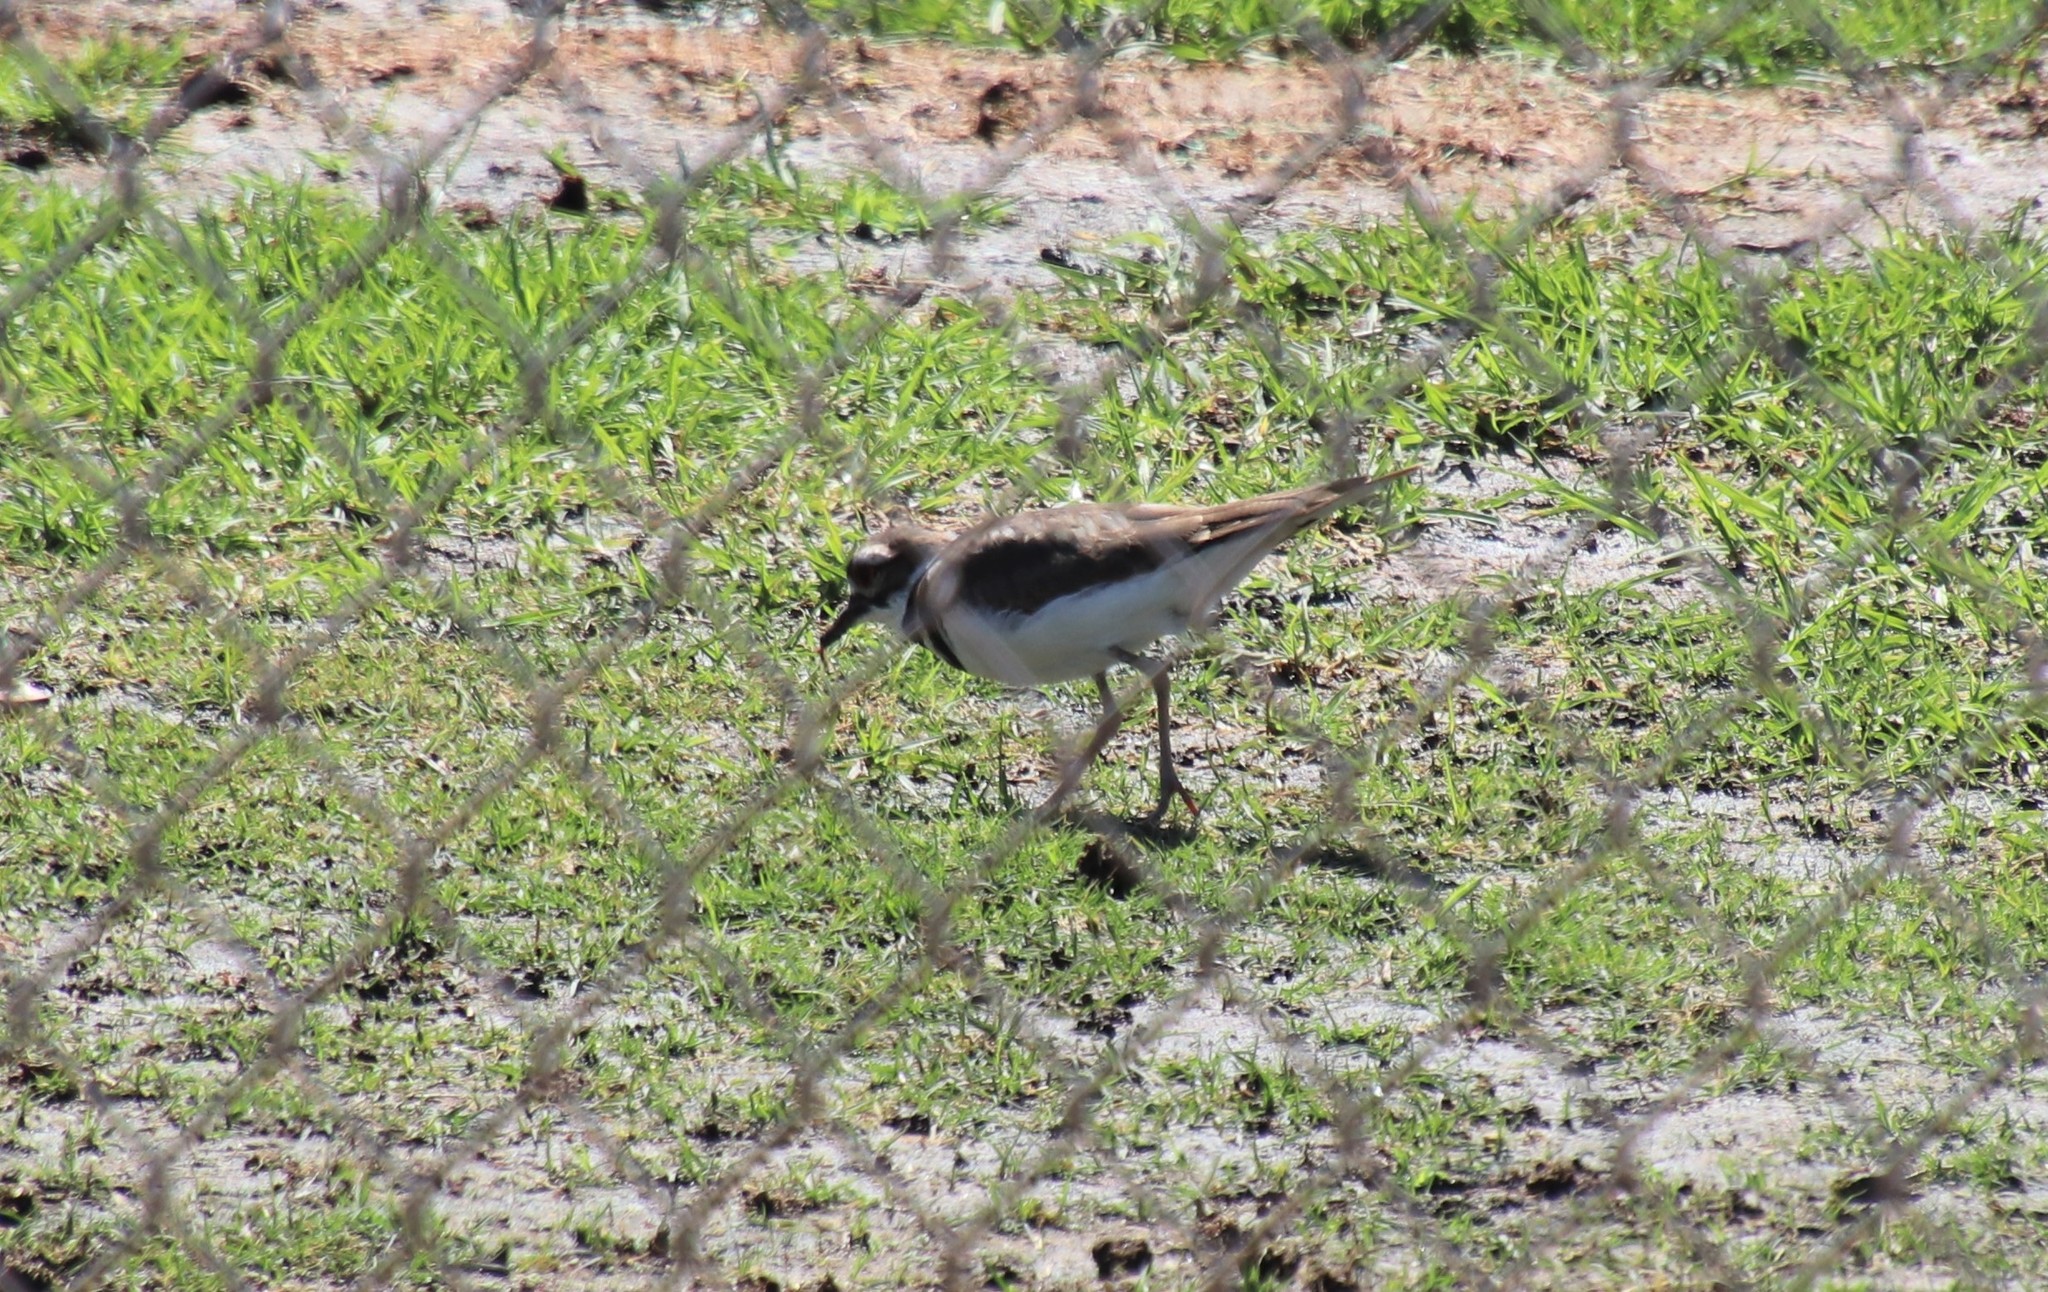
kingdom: Animalia
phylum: Chordata
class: Aves
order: Charadriiformes
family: Charadriidae
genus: Charadrius
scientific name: Charadrius vociferus
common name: Killdeer
